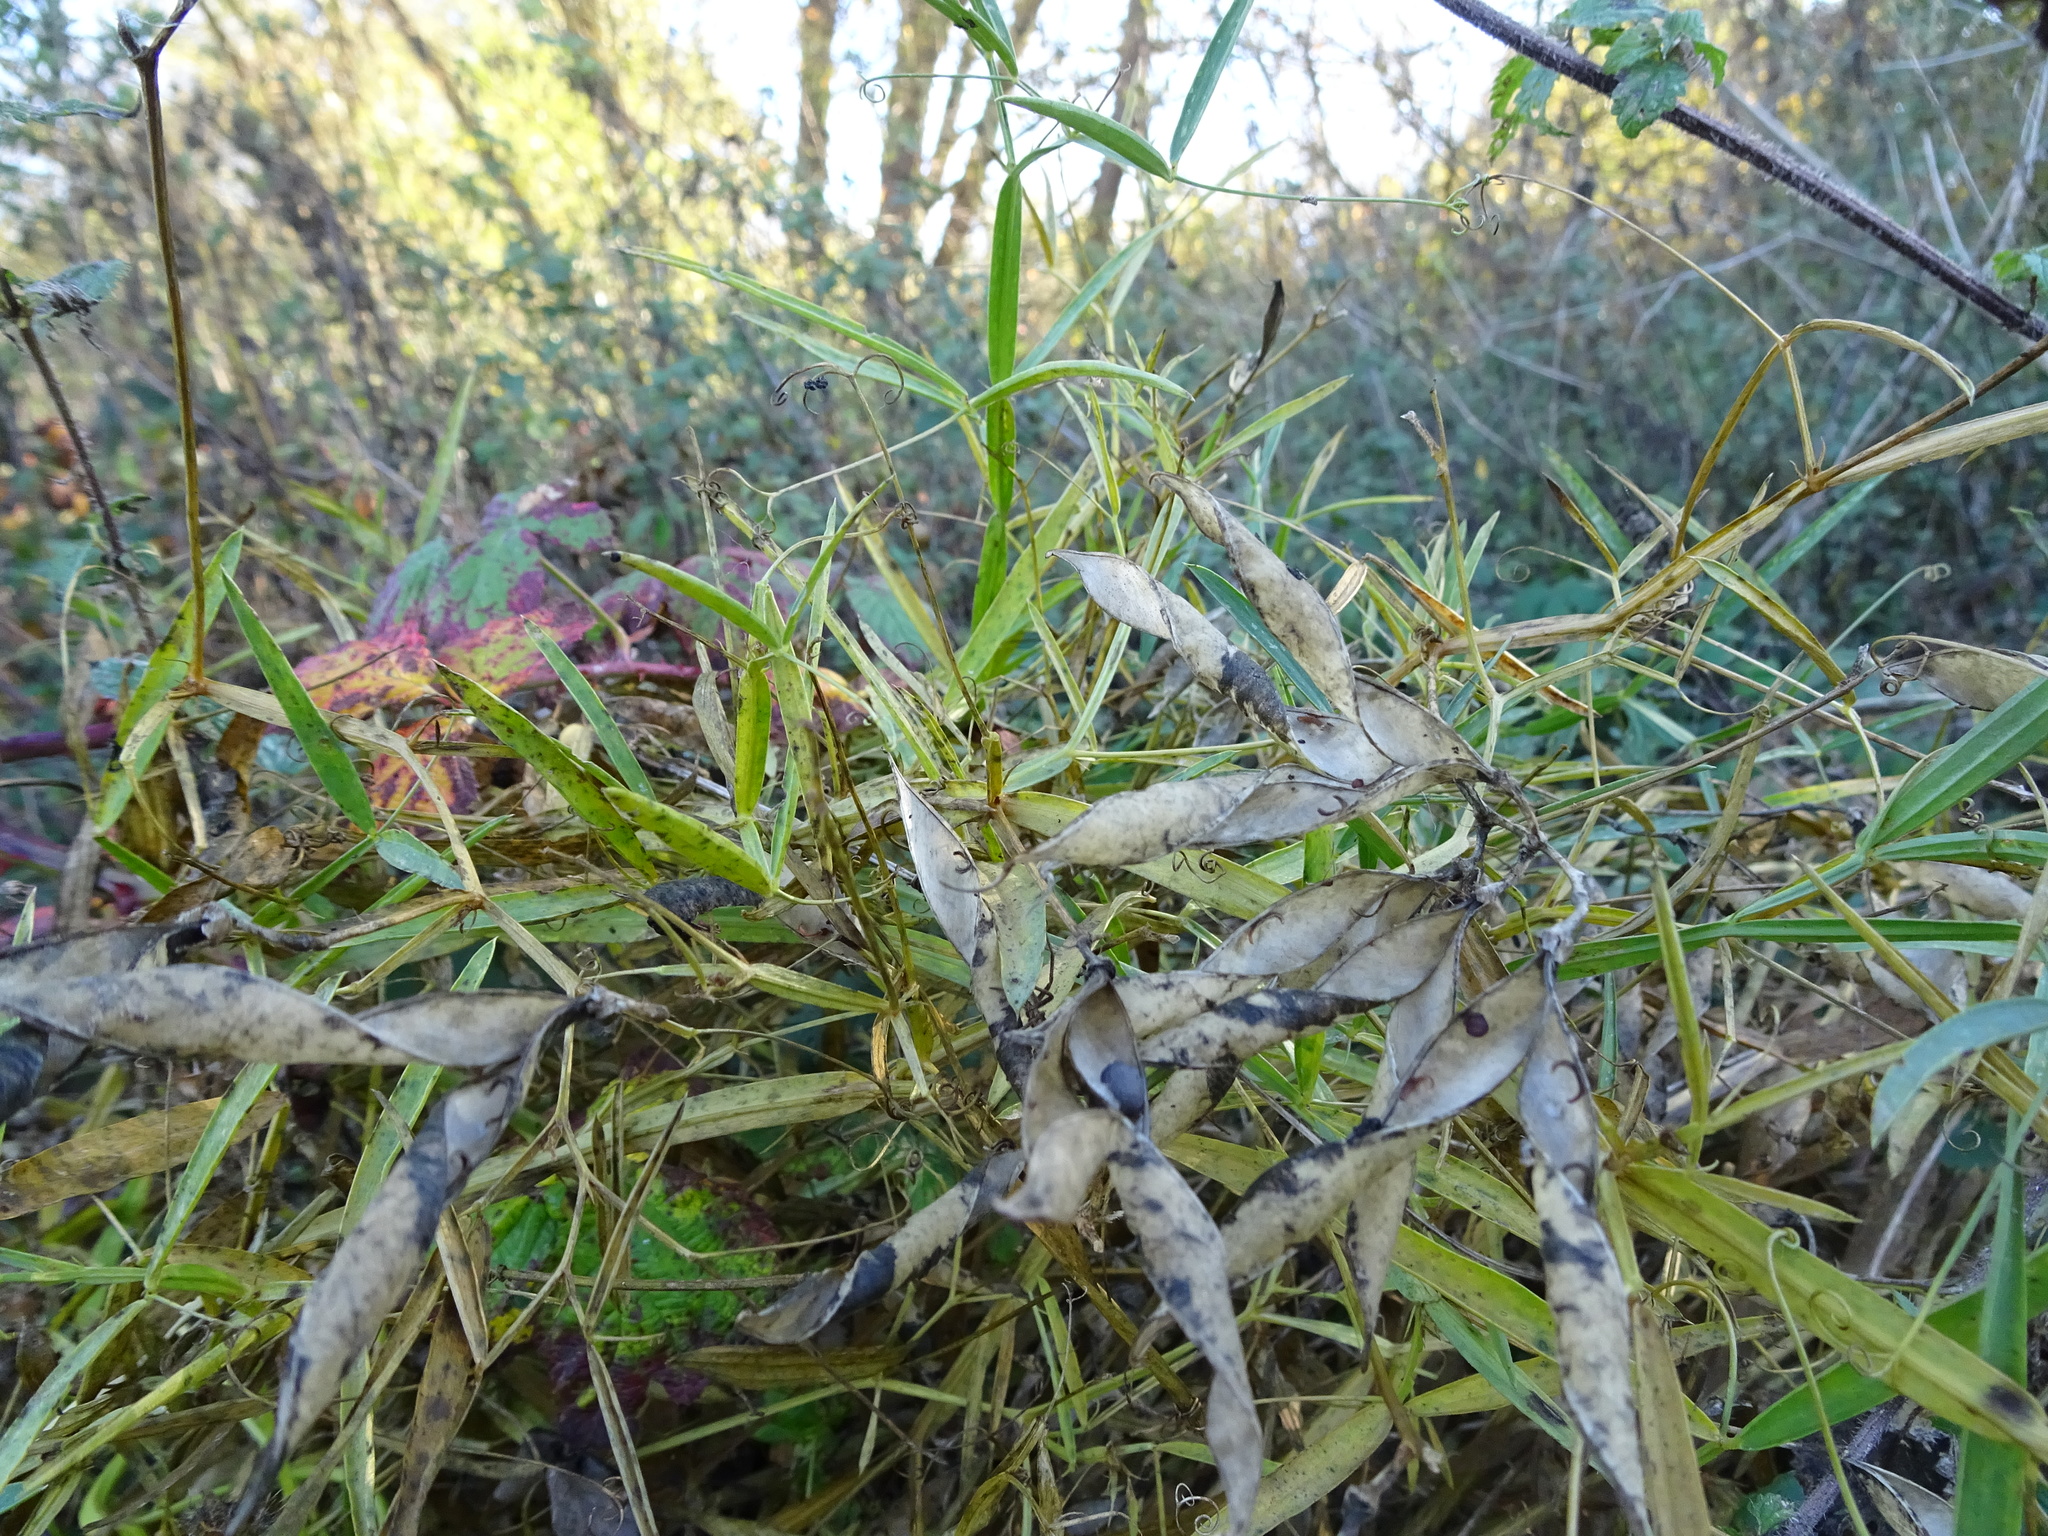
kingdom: Plantae
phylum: Tracheophyta
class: Magnoliopsida
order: Fabales
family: Fabaceae
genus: Lathyrus
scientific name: Lathyrus latifolius
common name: Perennial pea
